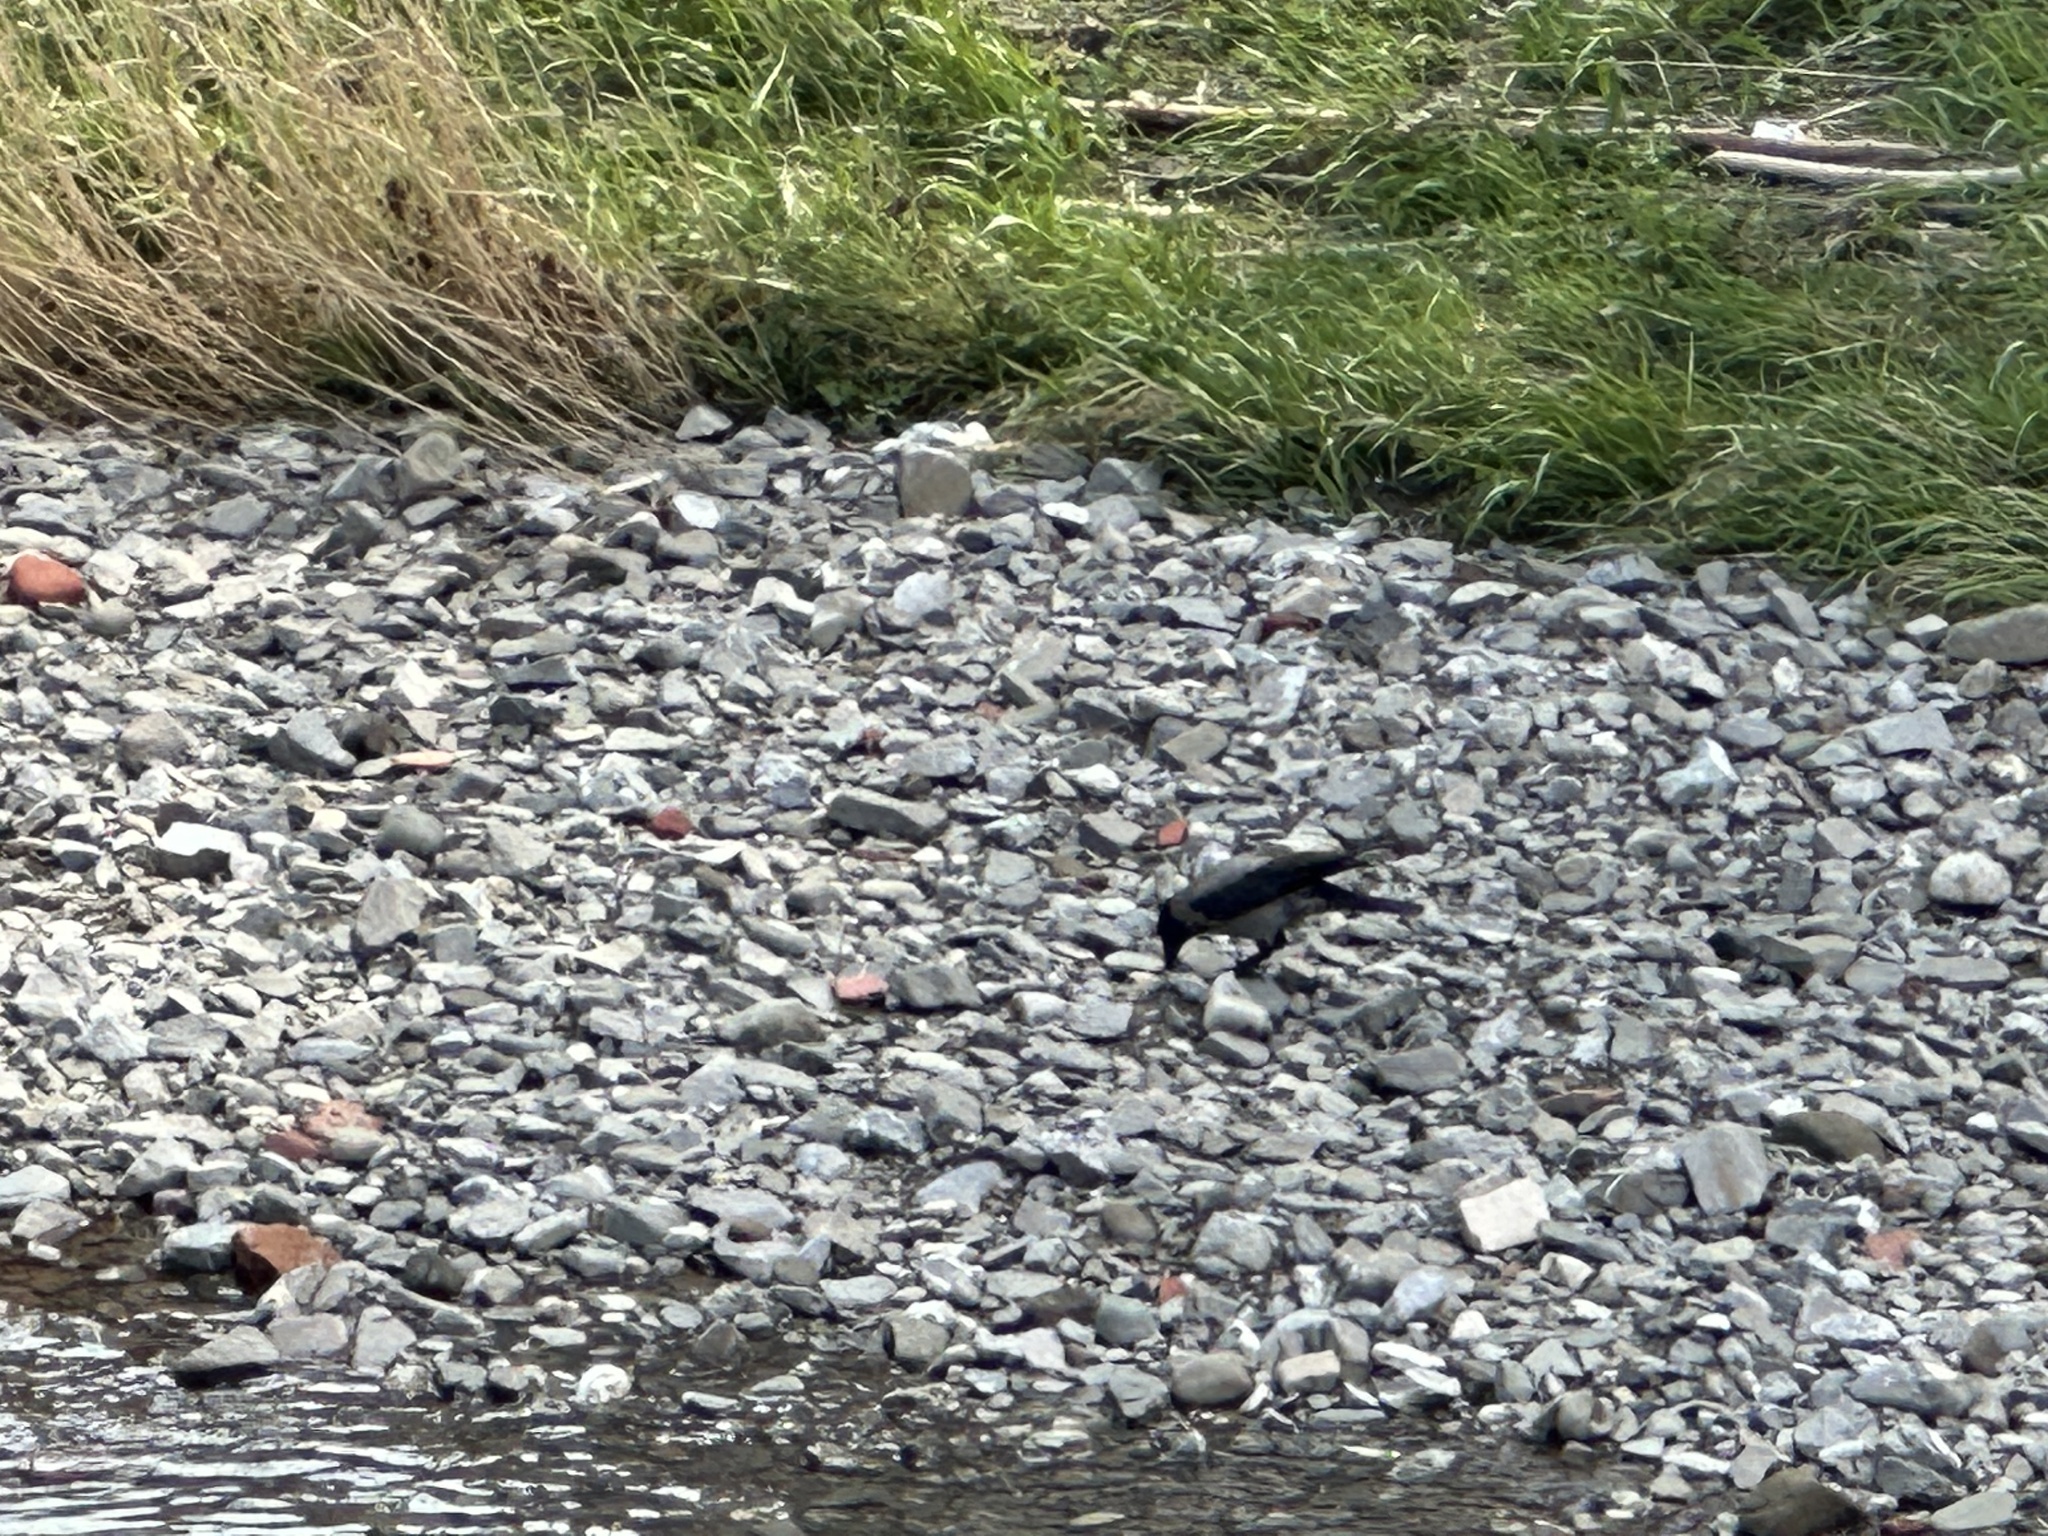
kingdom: Animalia
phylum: Chordata
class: Aves
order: Passeriformes
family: Corvidae
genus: Corvus
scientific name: Corvus cornix
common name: Hooded crow
